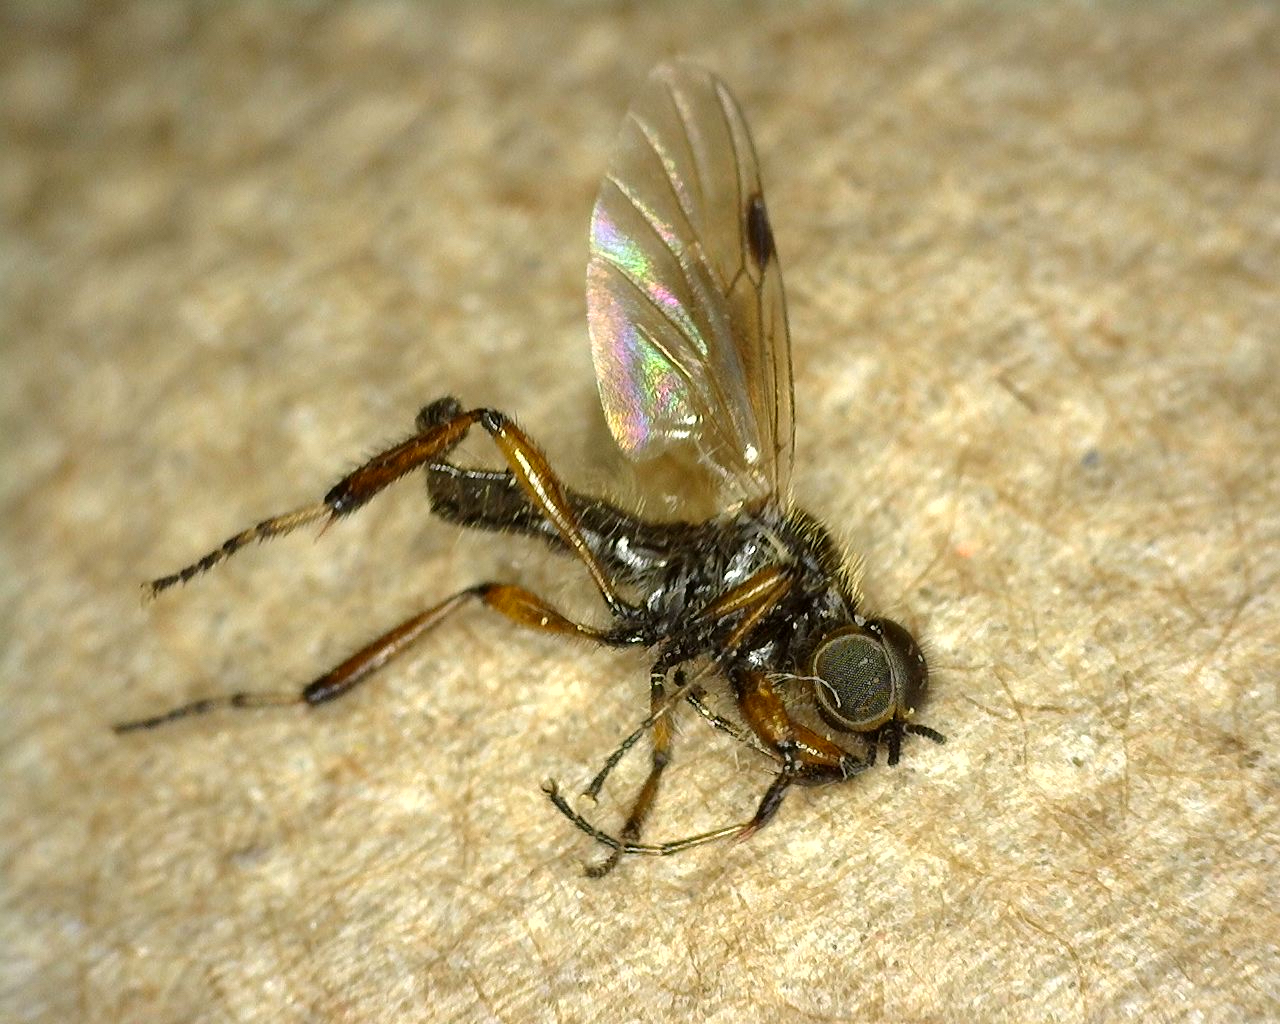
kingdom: Animalia
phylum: Arthropoda
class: Insecta
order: Diptera
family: Bibionidae
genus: Bibio
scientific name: Bibio articulatus
